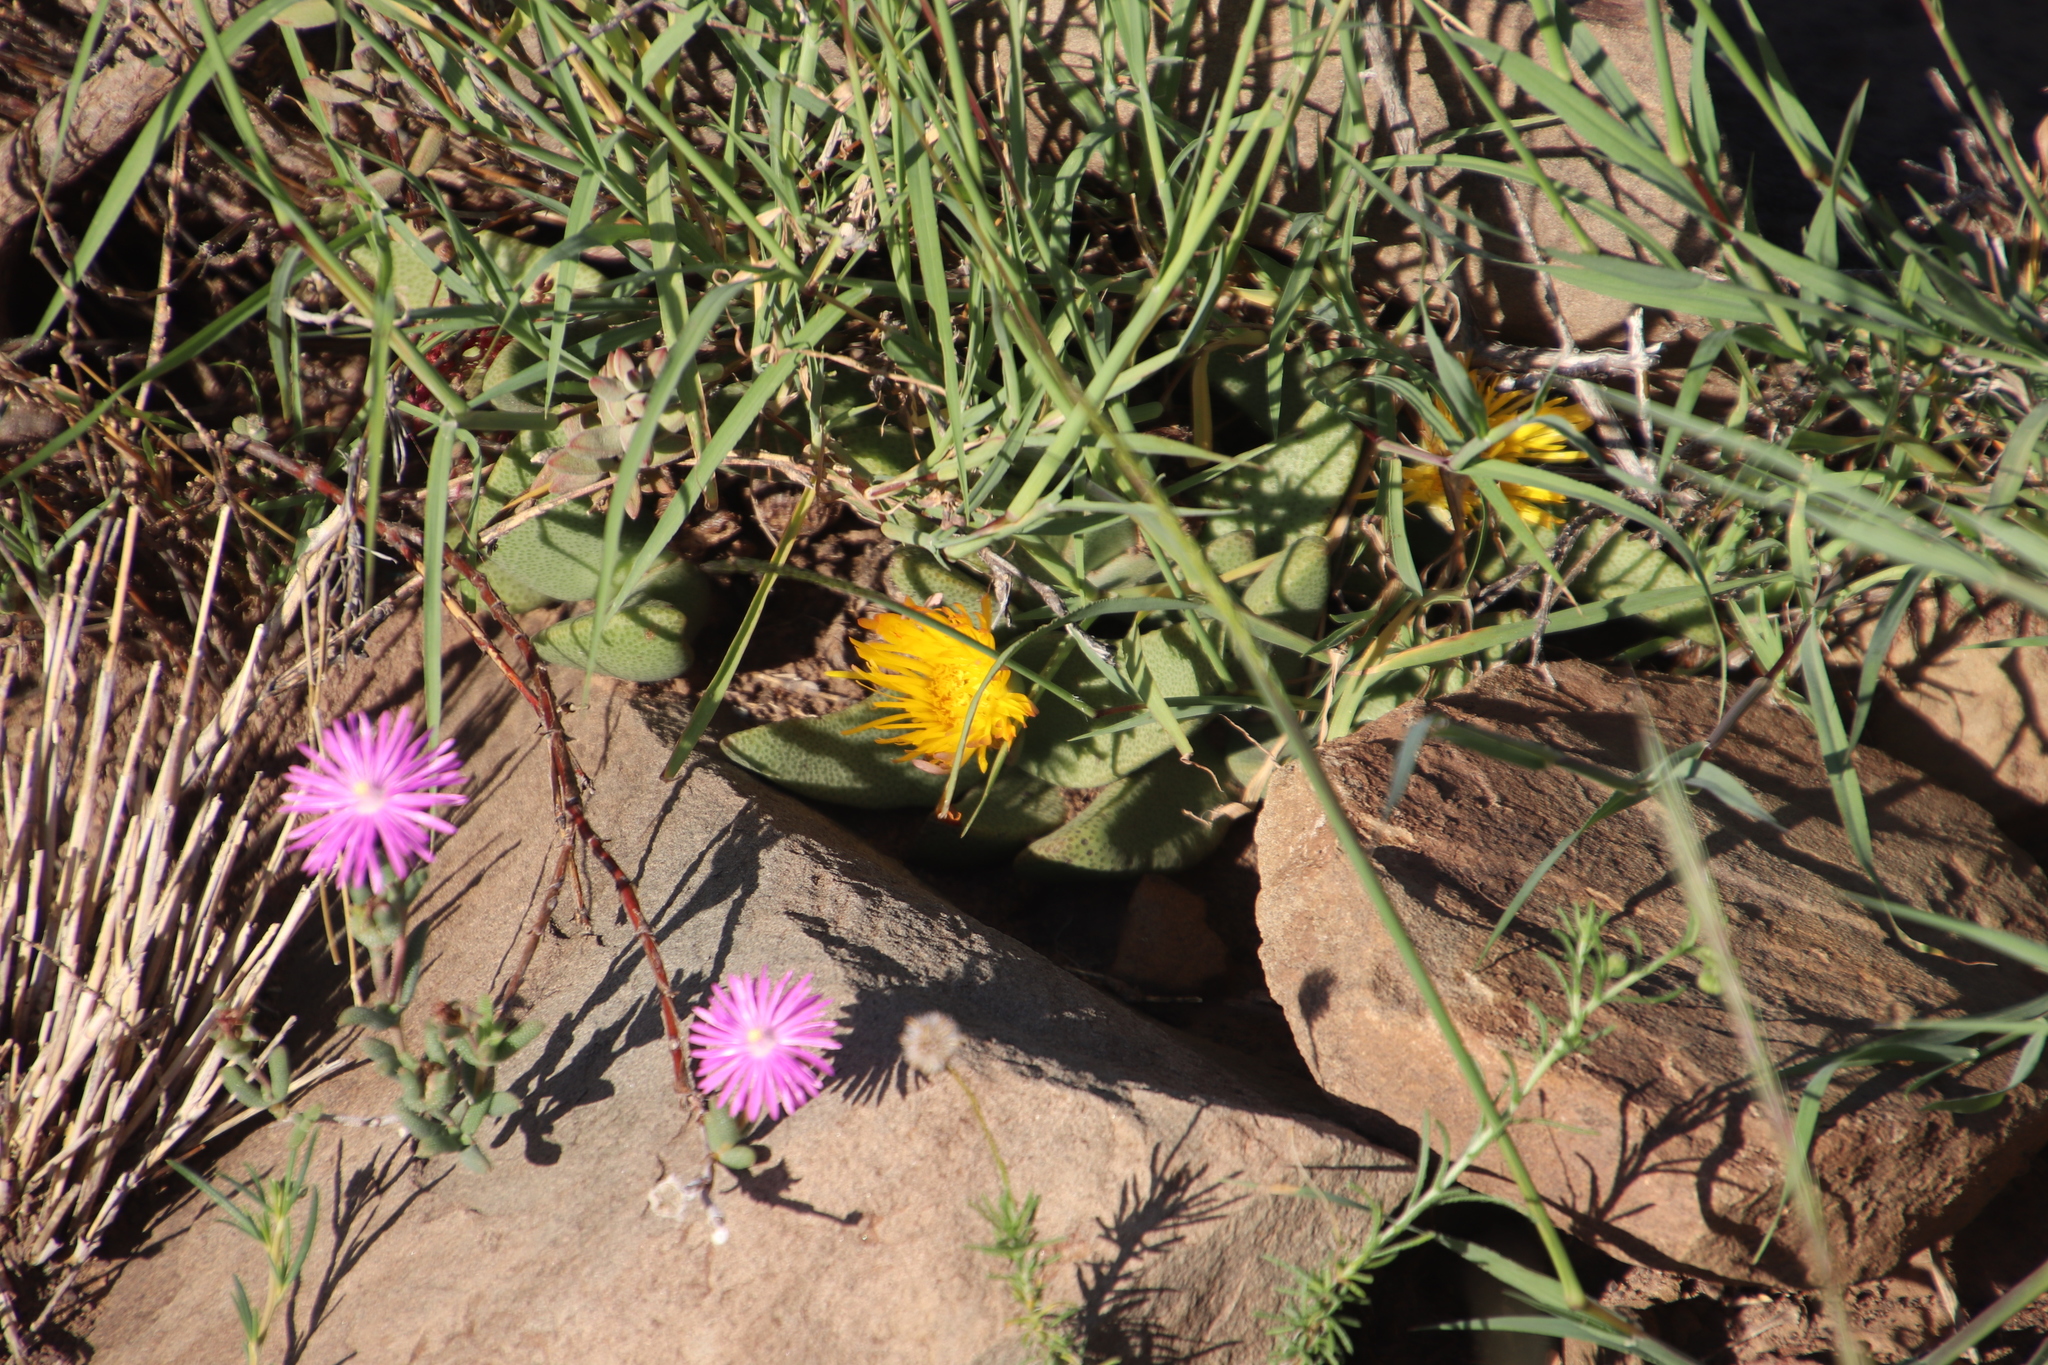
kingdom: Plantae
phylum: Tracheophyta
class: Magnoliopsida
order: Caryophyllales
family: Aizoaceae
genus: Pleiospilos
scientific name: Pleiospilos compactus
